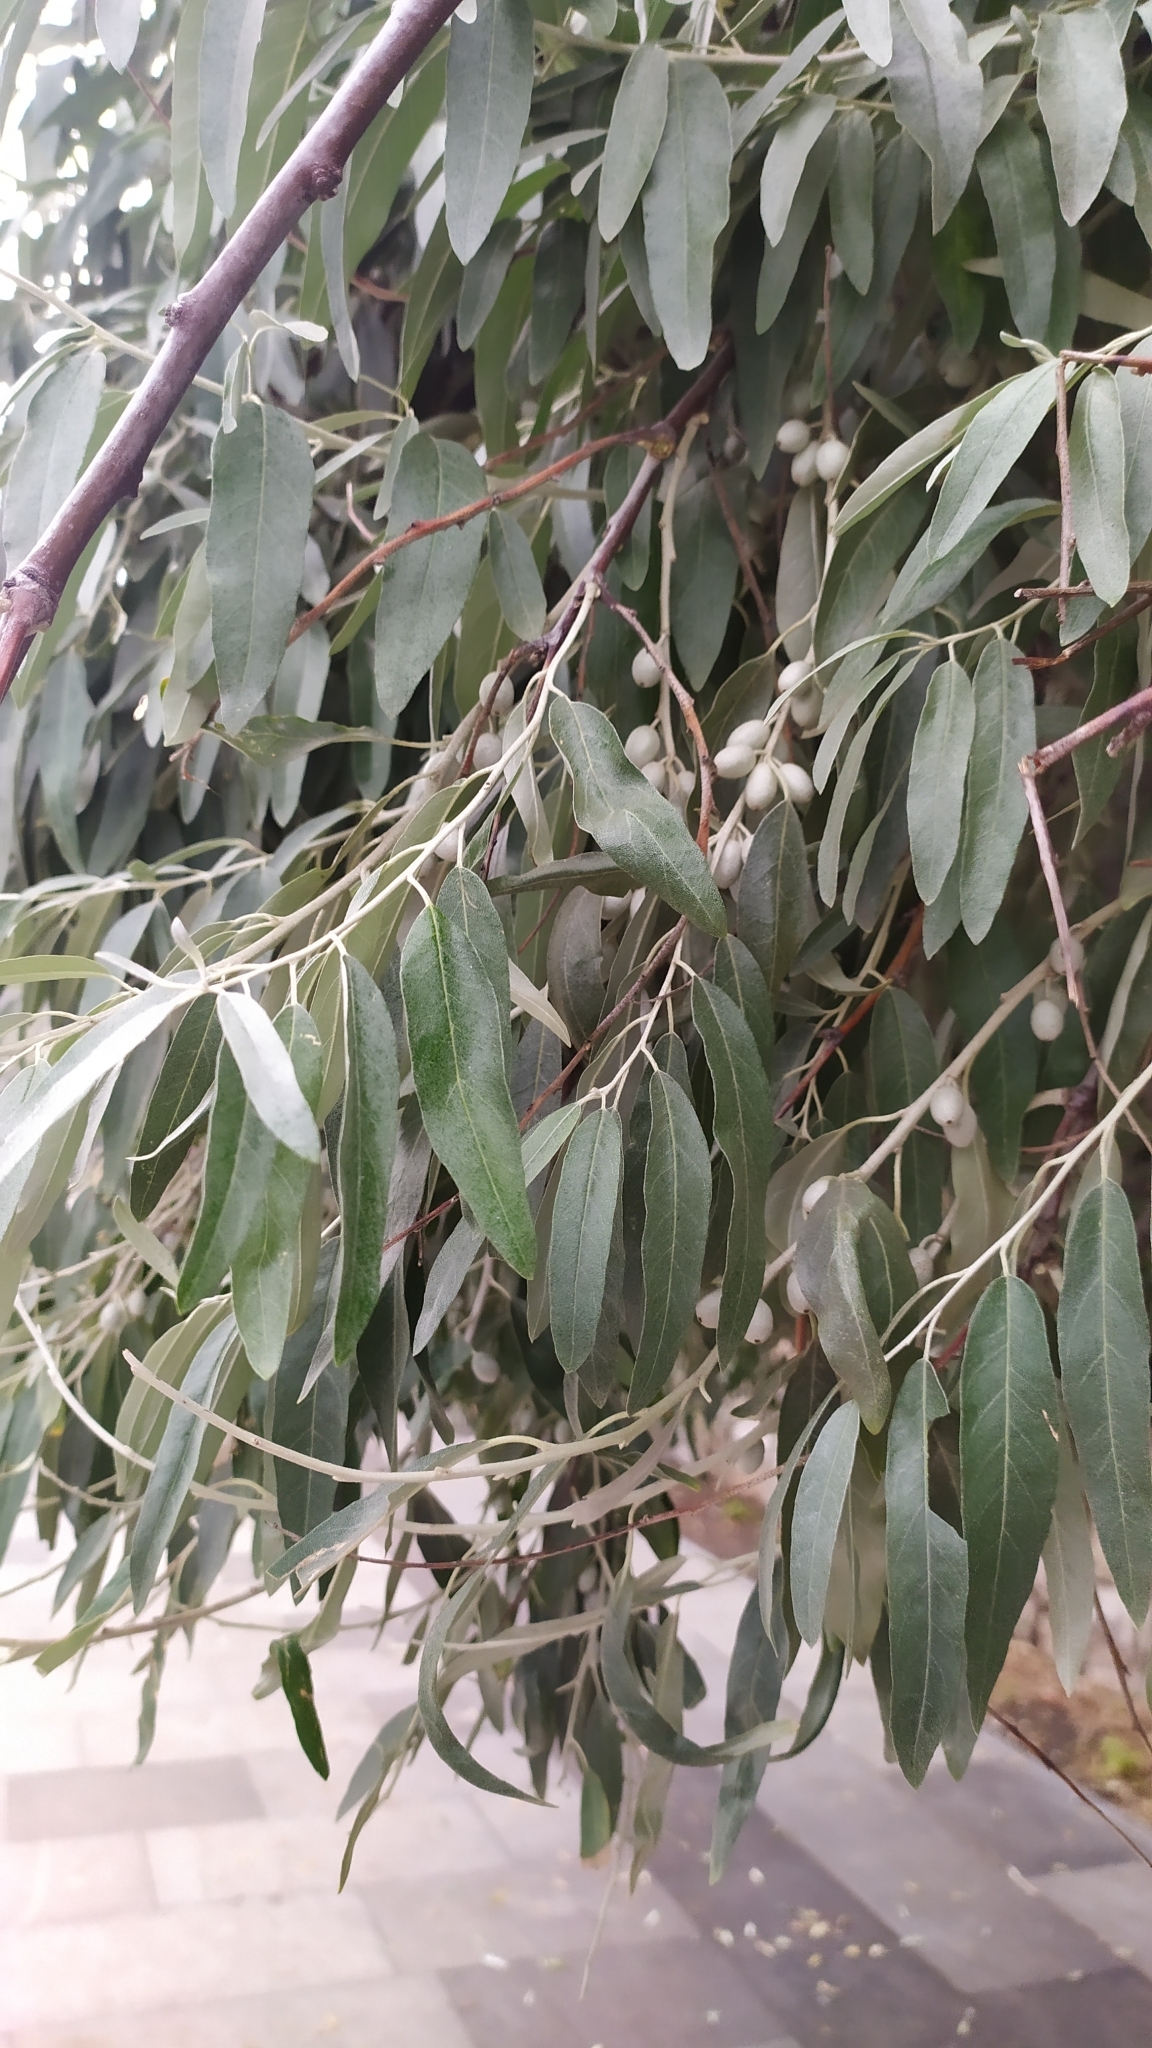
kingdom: Plantae
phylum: Tracheophyta
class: Magnoliopsida
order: Rosales
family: Elaeagnaceae
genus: Elaeagnus
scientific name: Elaeagnus angustifolia
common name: Russian olive
